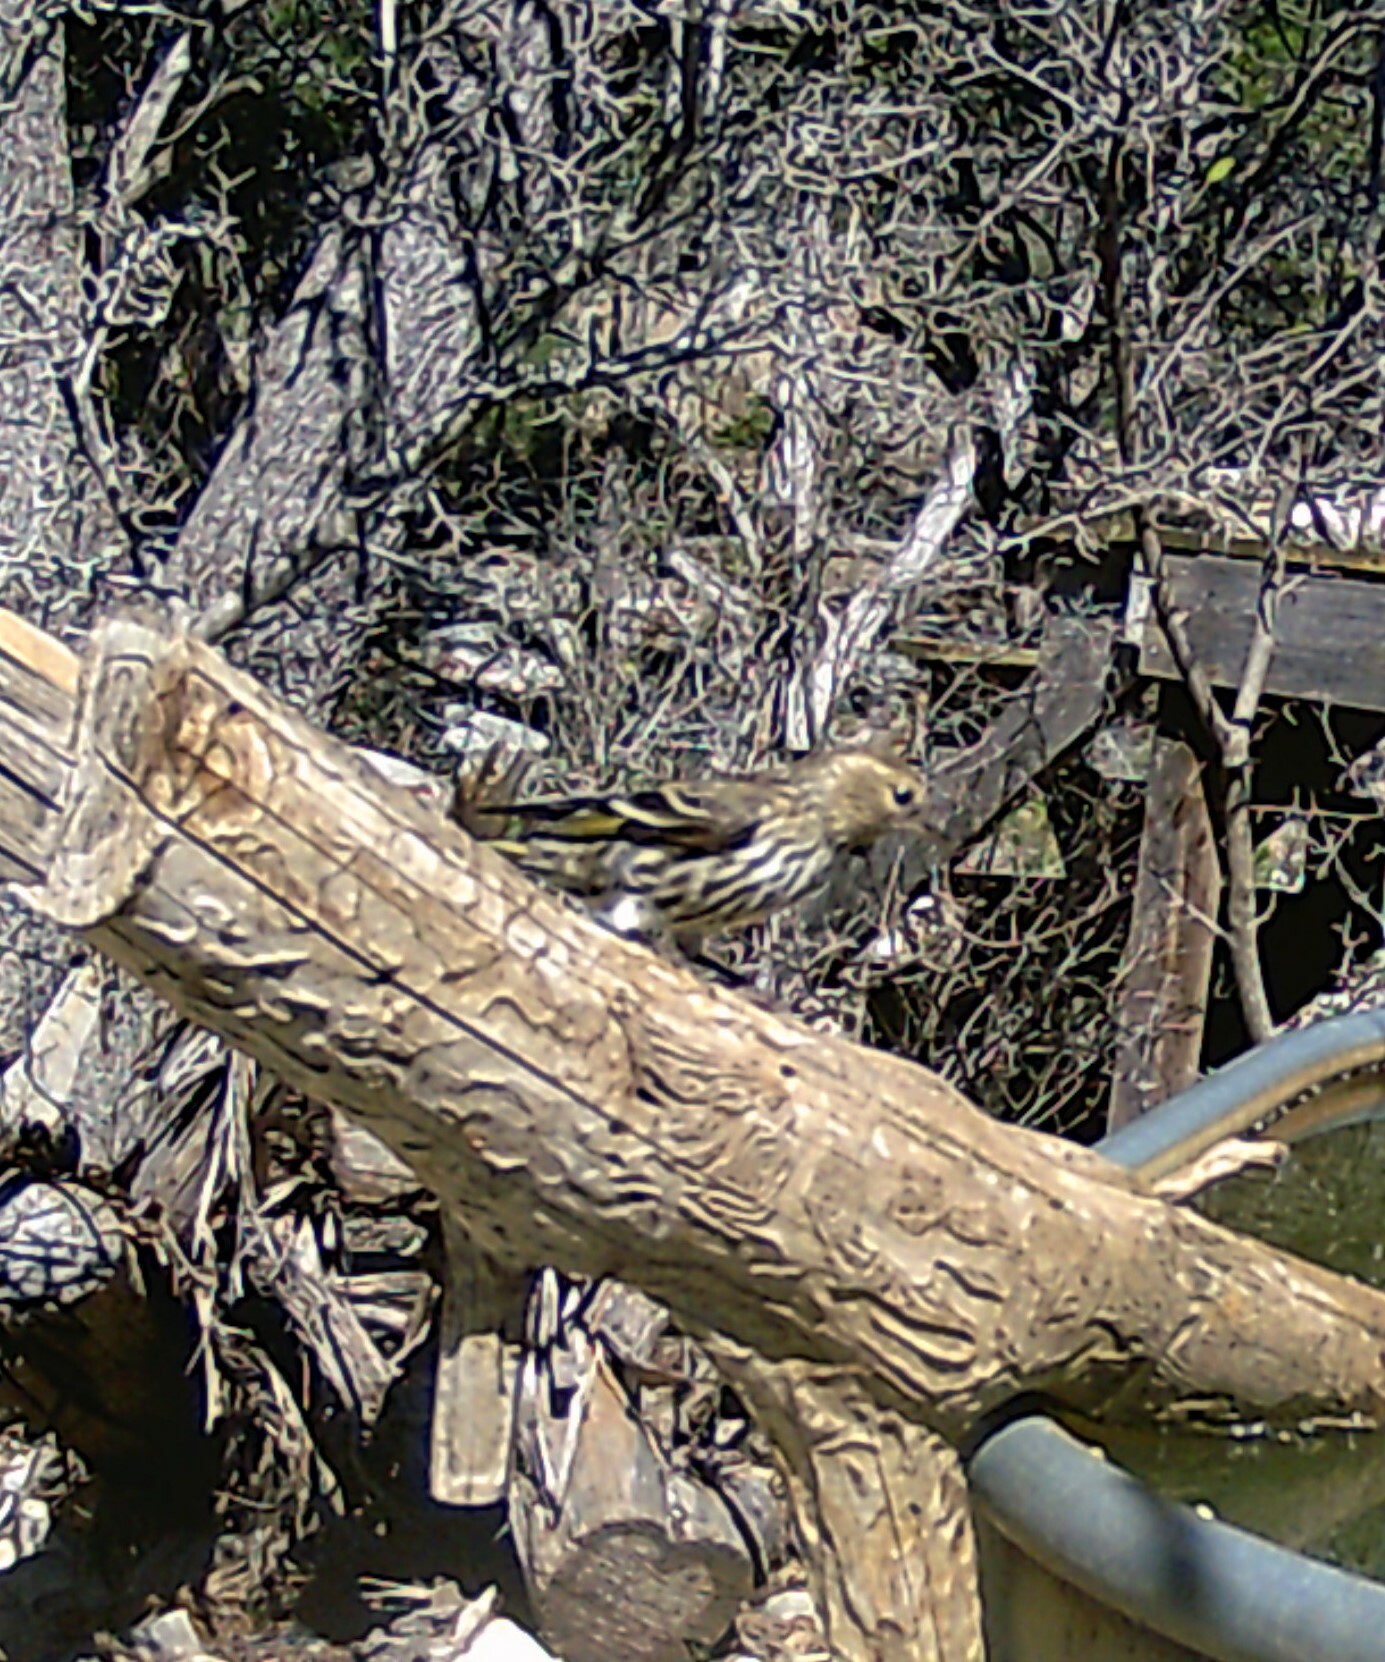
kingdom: Animalia
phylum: Chordata
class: Aves
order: Passeriformes
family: Fringillidae
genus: Spinus
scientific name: Spinus pinus
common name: Pine siskin
